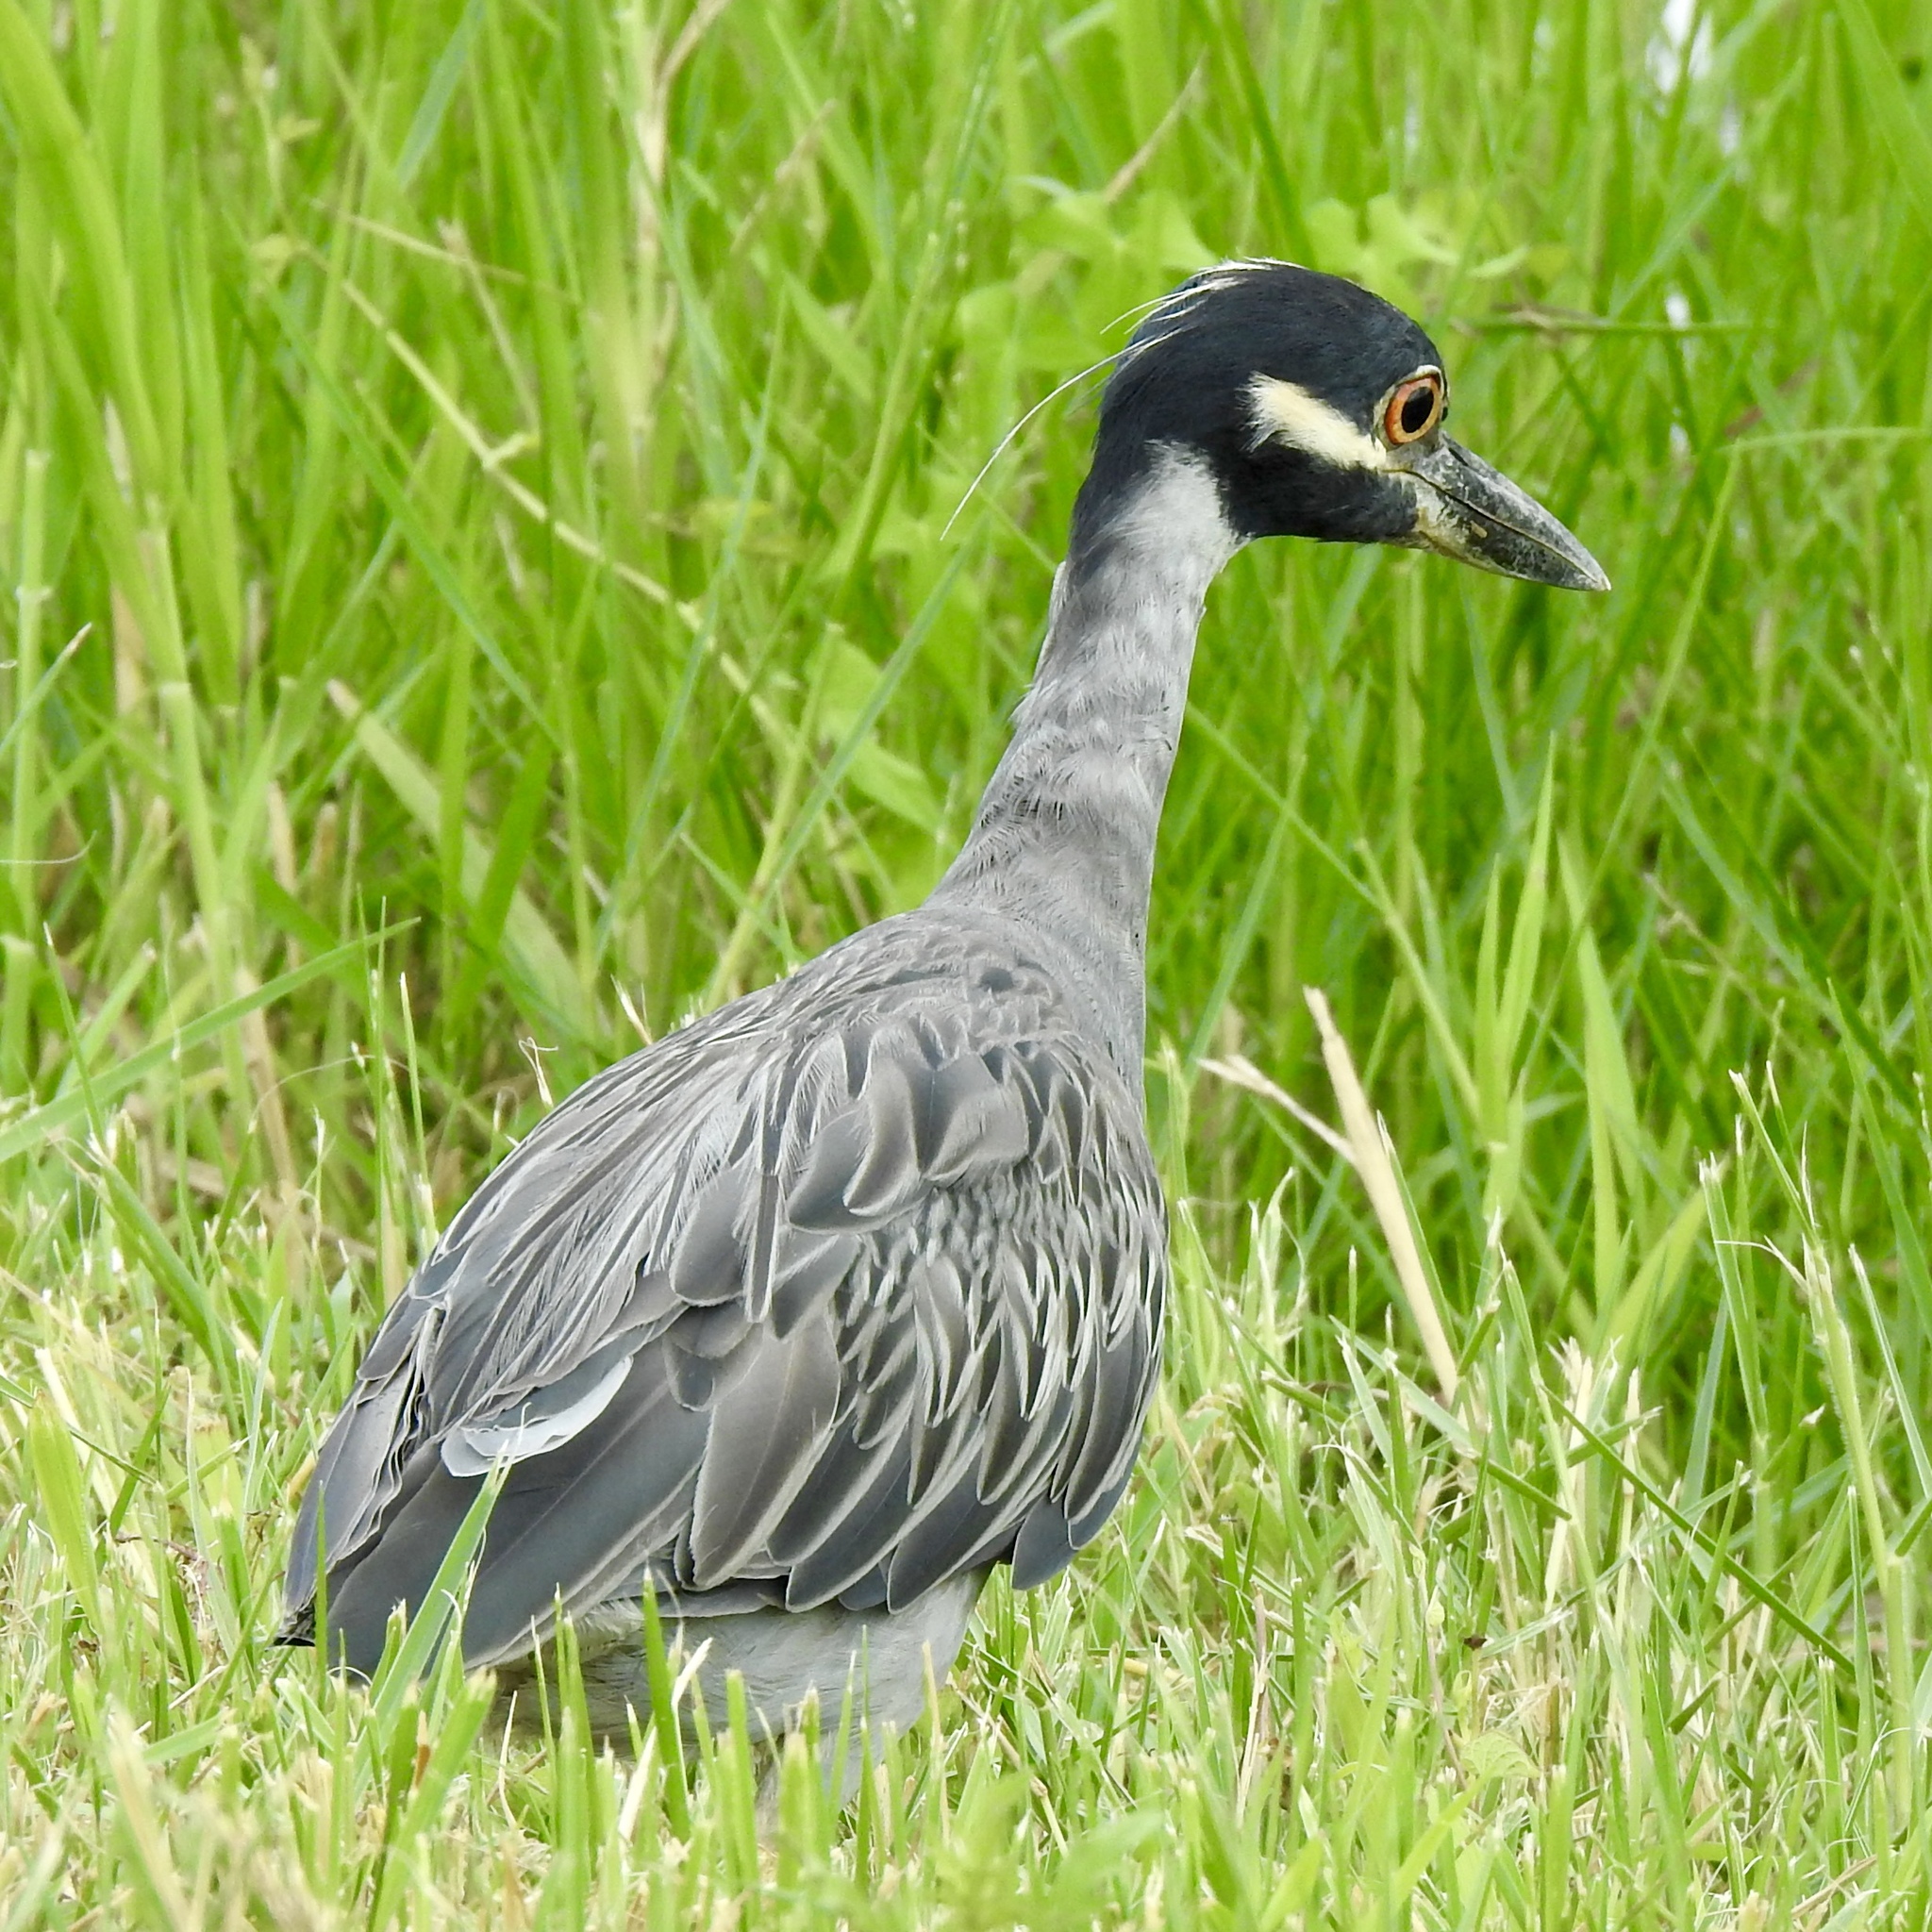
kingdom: Animalia
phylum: Chordata
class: Aves
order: Pelecaniformes
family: Ardeidae
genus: Nyctanassa
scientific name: Nyctanassa violacea
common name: Yellow-crowned night heron
